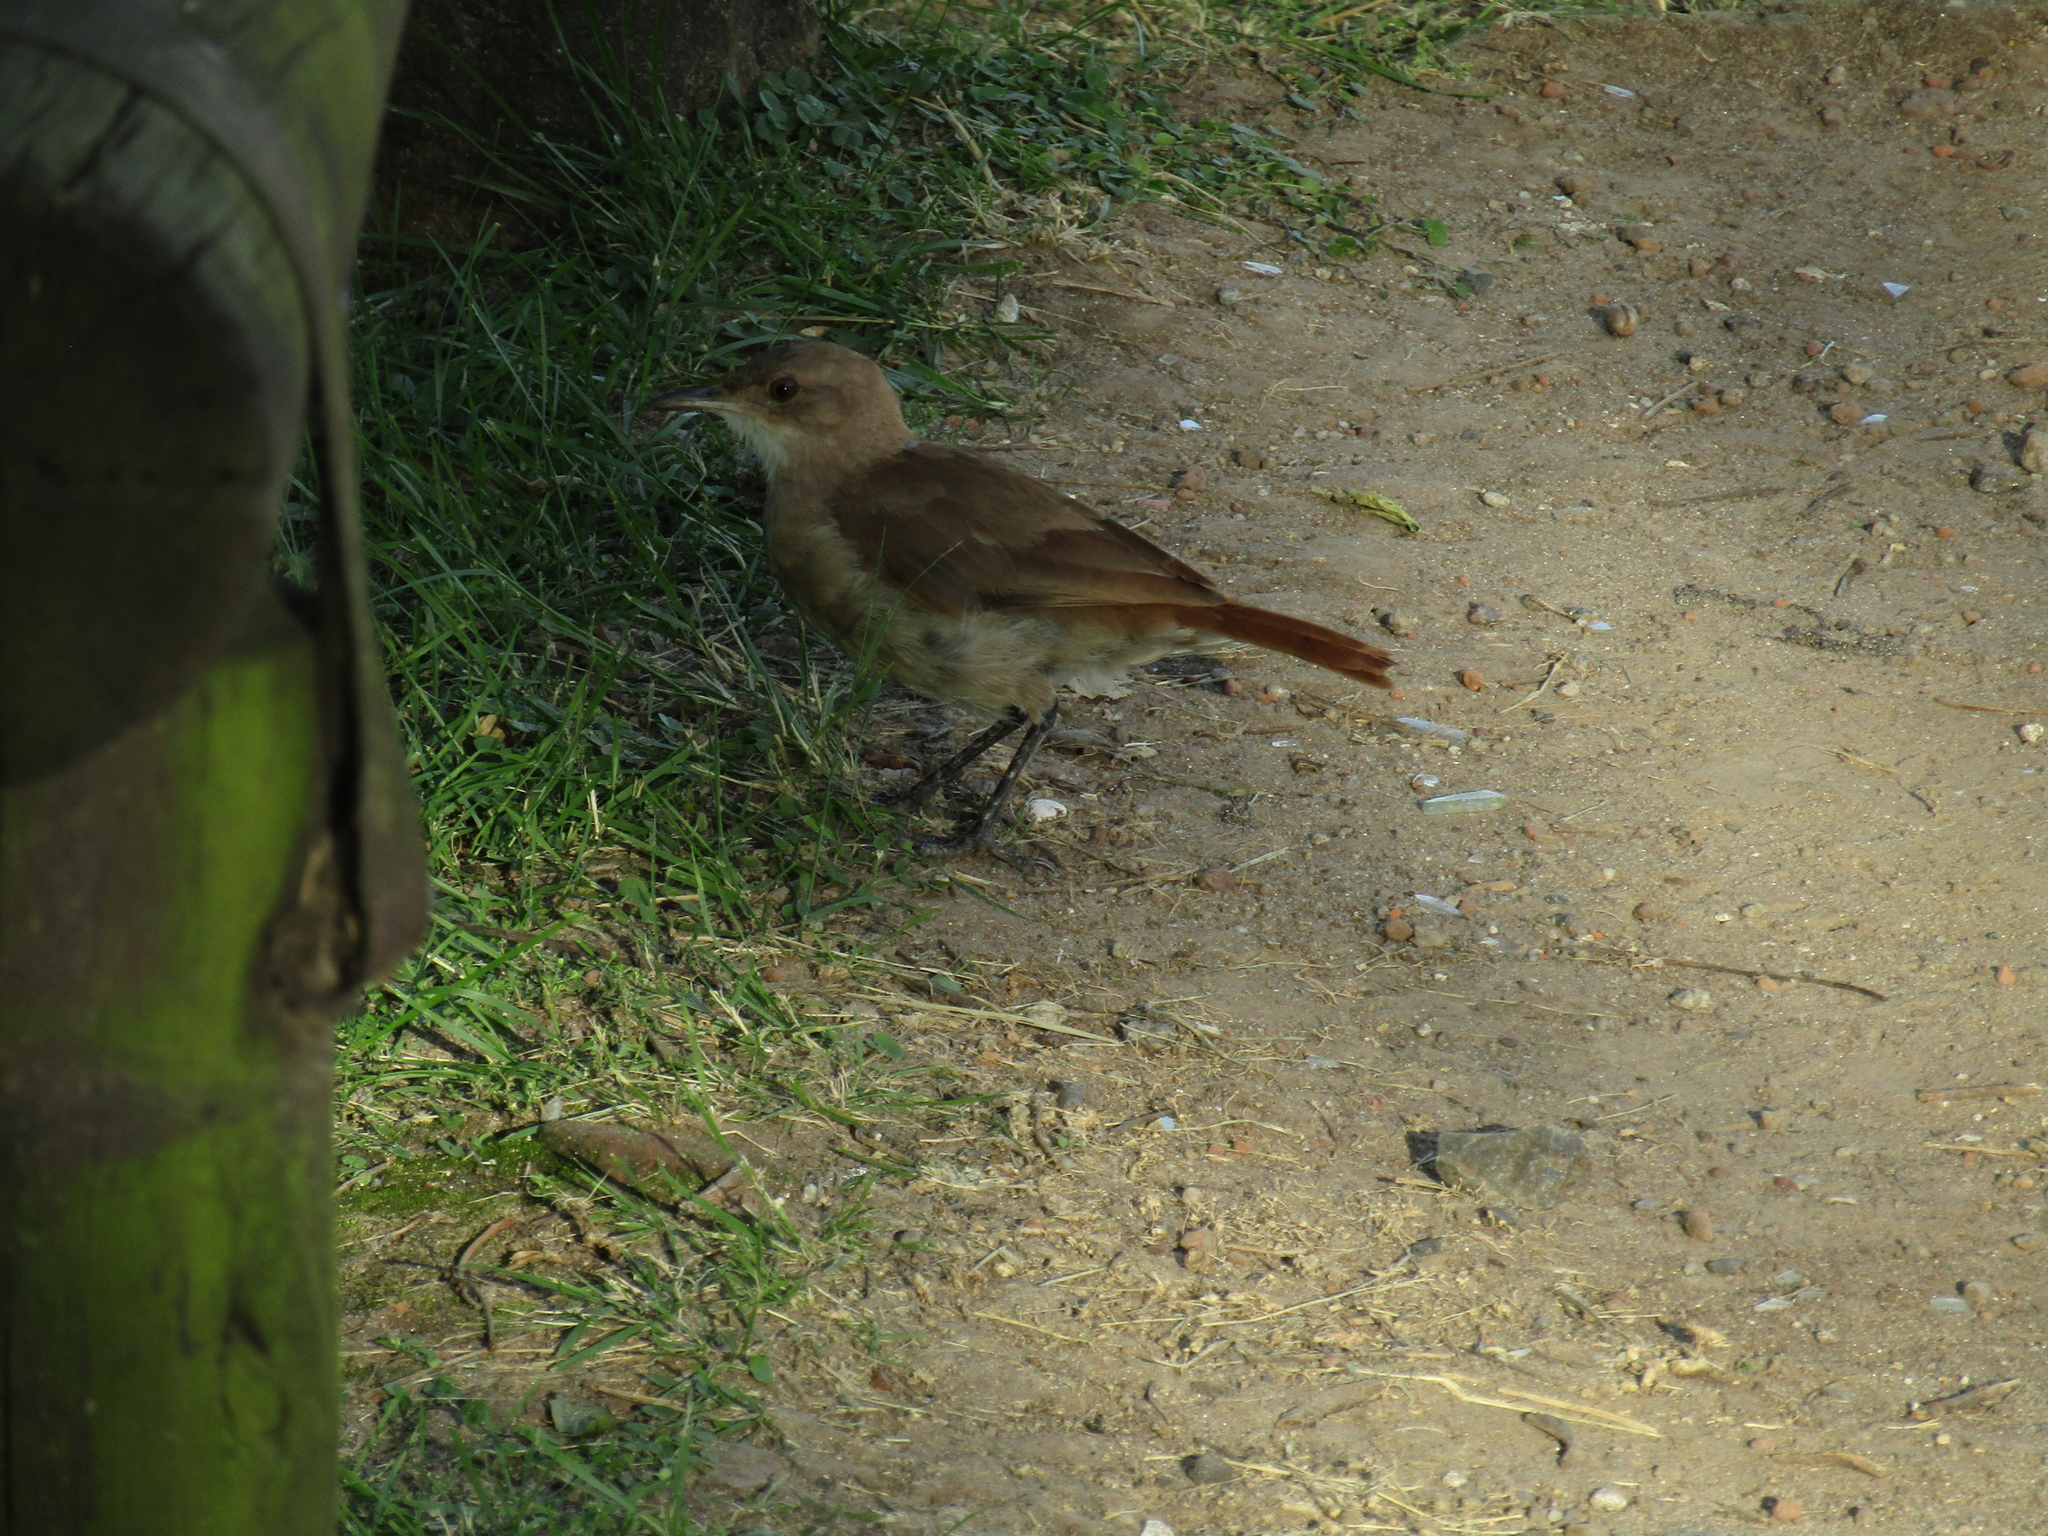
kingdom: Animalia
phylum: Chordata
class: Aves
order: Passeriformes
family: Furnariidae
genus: Furnarius
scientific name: Furnarius rufus
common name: Rufous hornero
